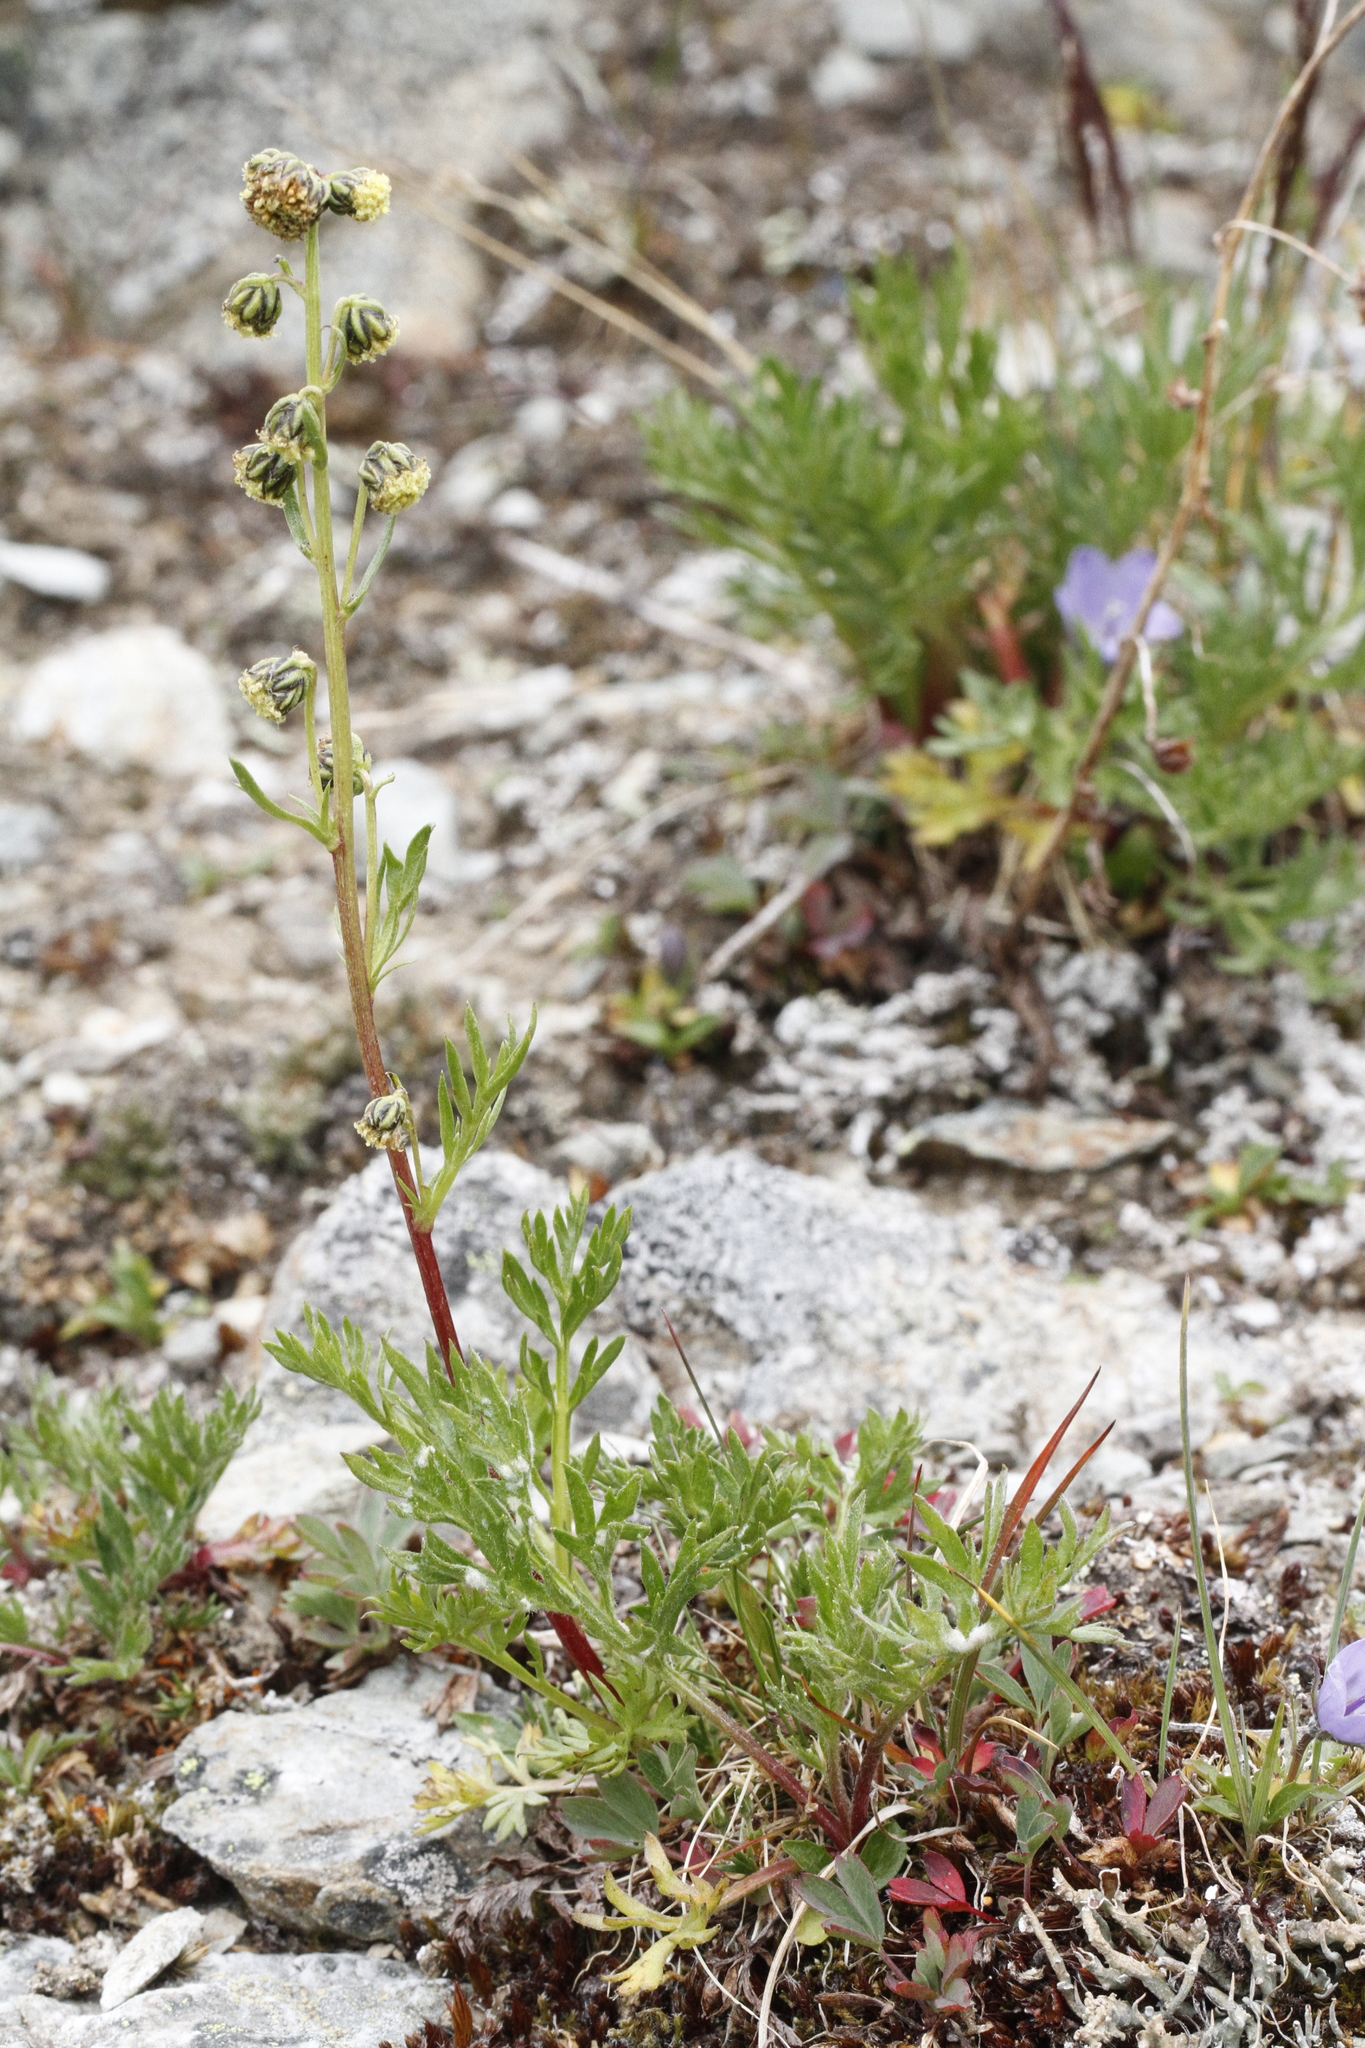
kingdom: Plantae
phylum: Tracheophyta
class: Magnoliopsida
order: Asterales
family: Asteraceae
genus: Artemisia
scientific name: Artemisia norvegica
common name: Norwegian mugwort
